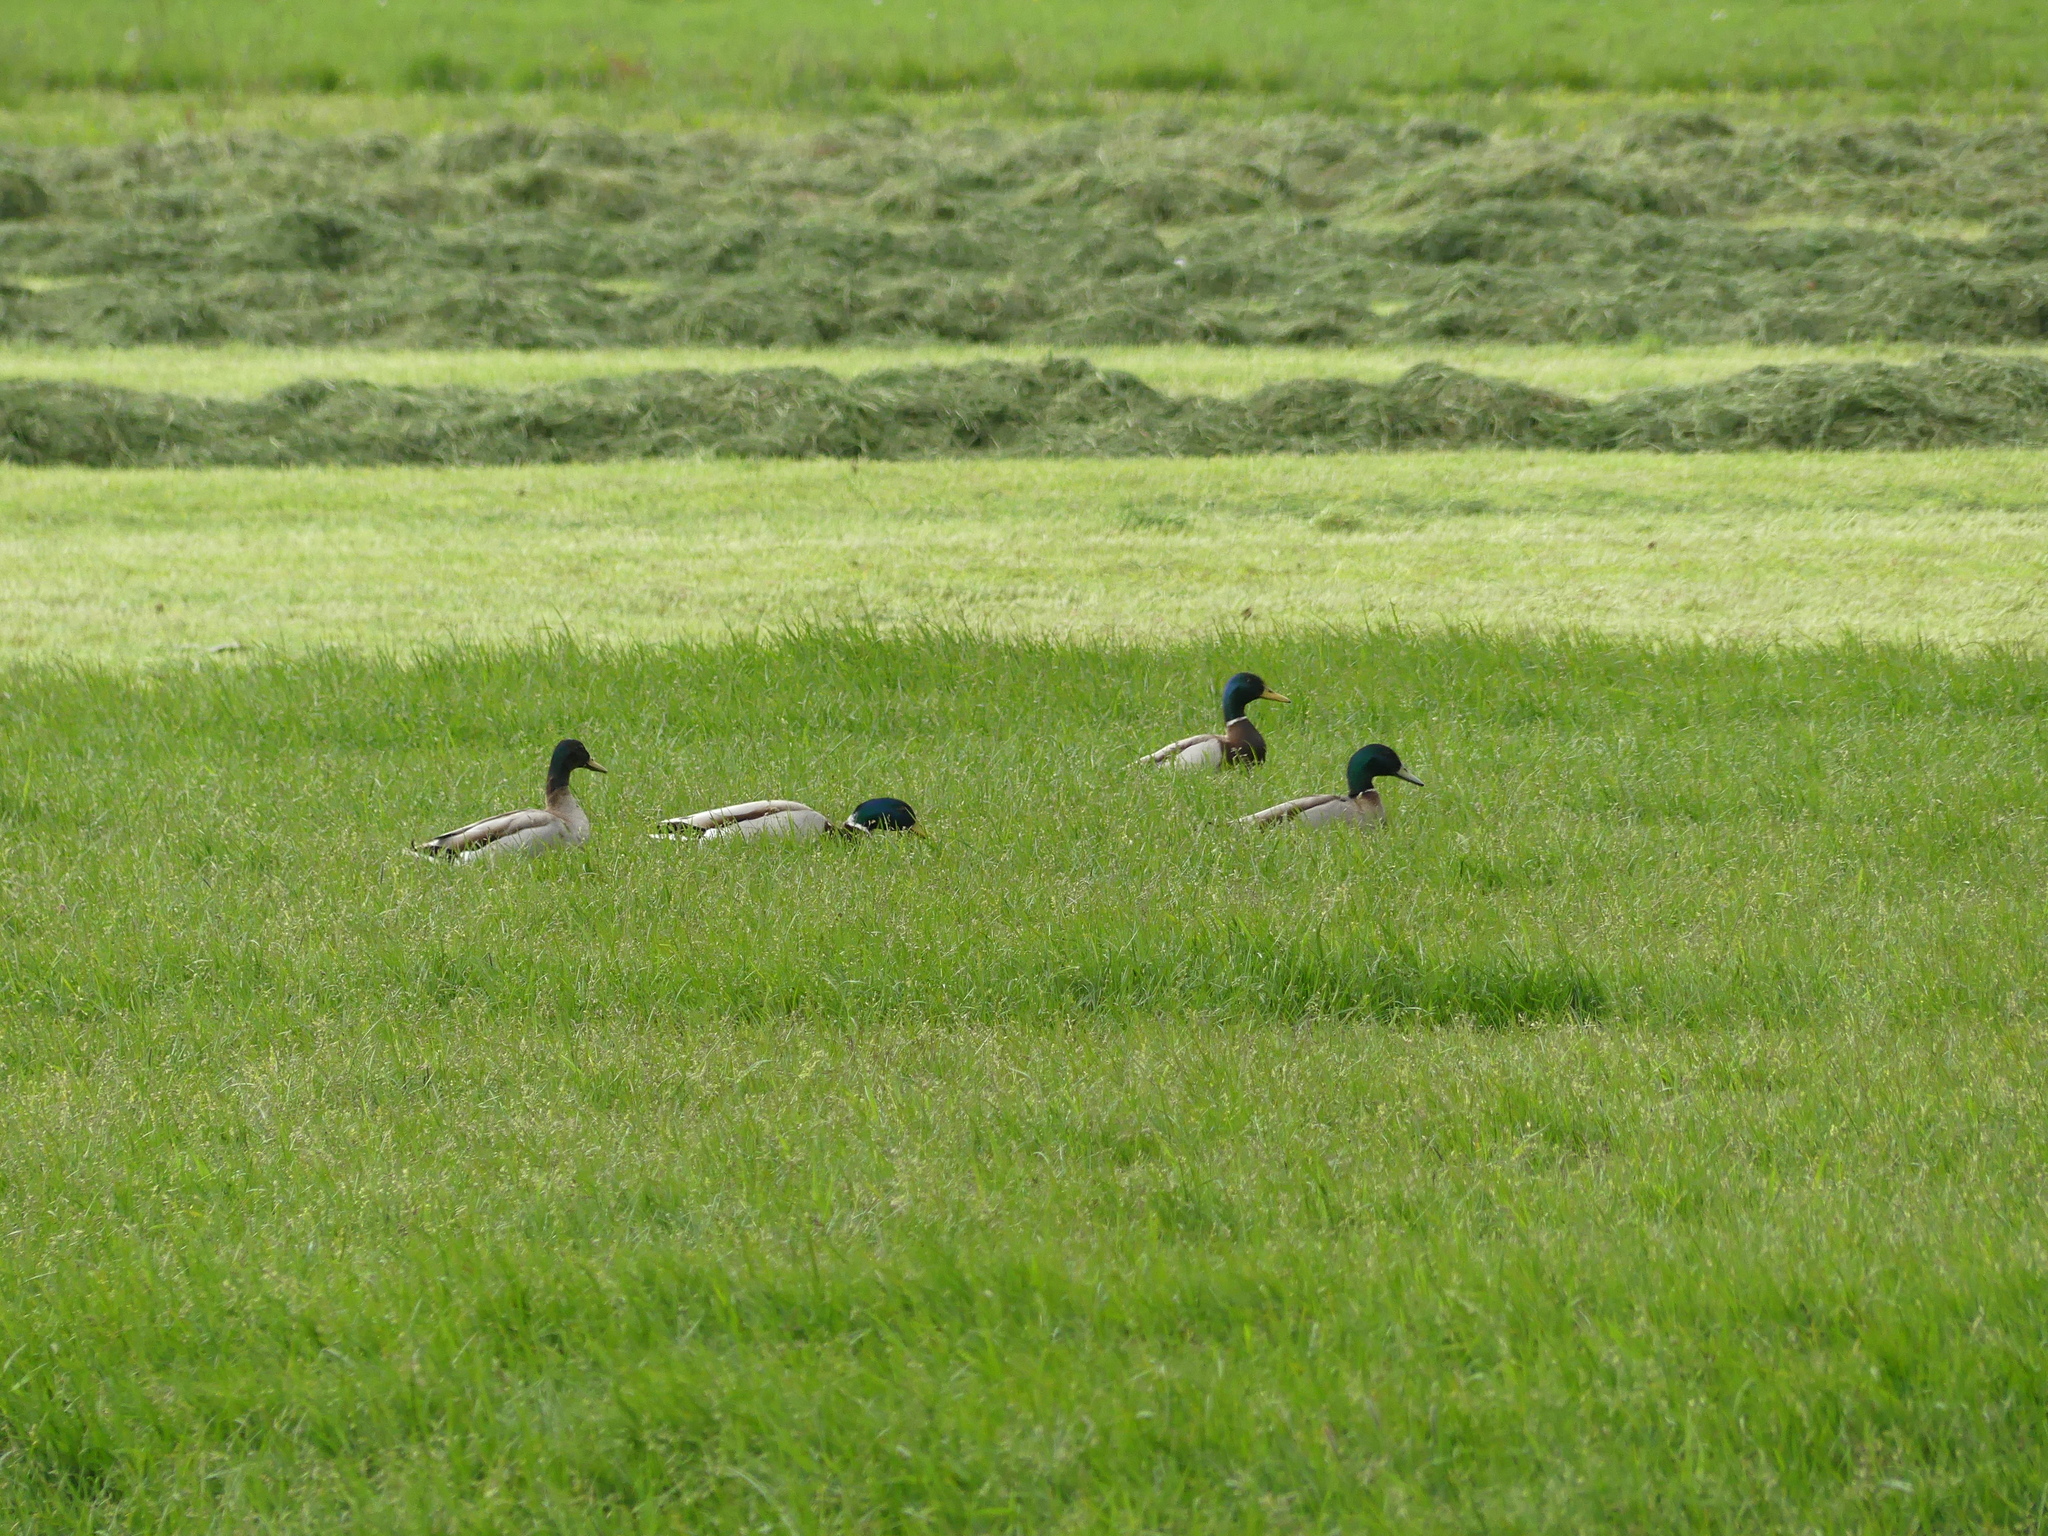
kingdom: Animalia
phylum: Chordata
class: Aves
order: Anseriformes
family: Anatidae
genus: Anas
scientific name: Anas platyrhynchos
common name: Mallard
